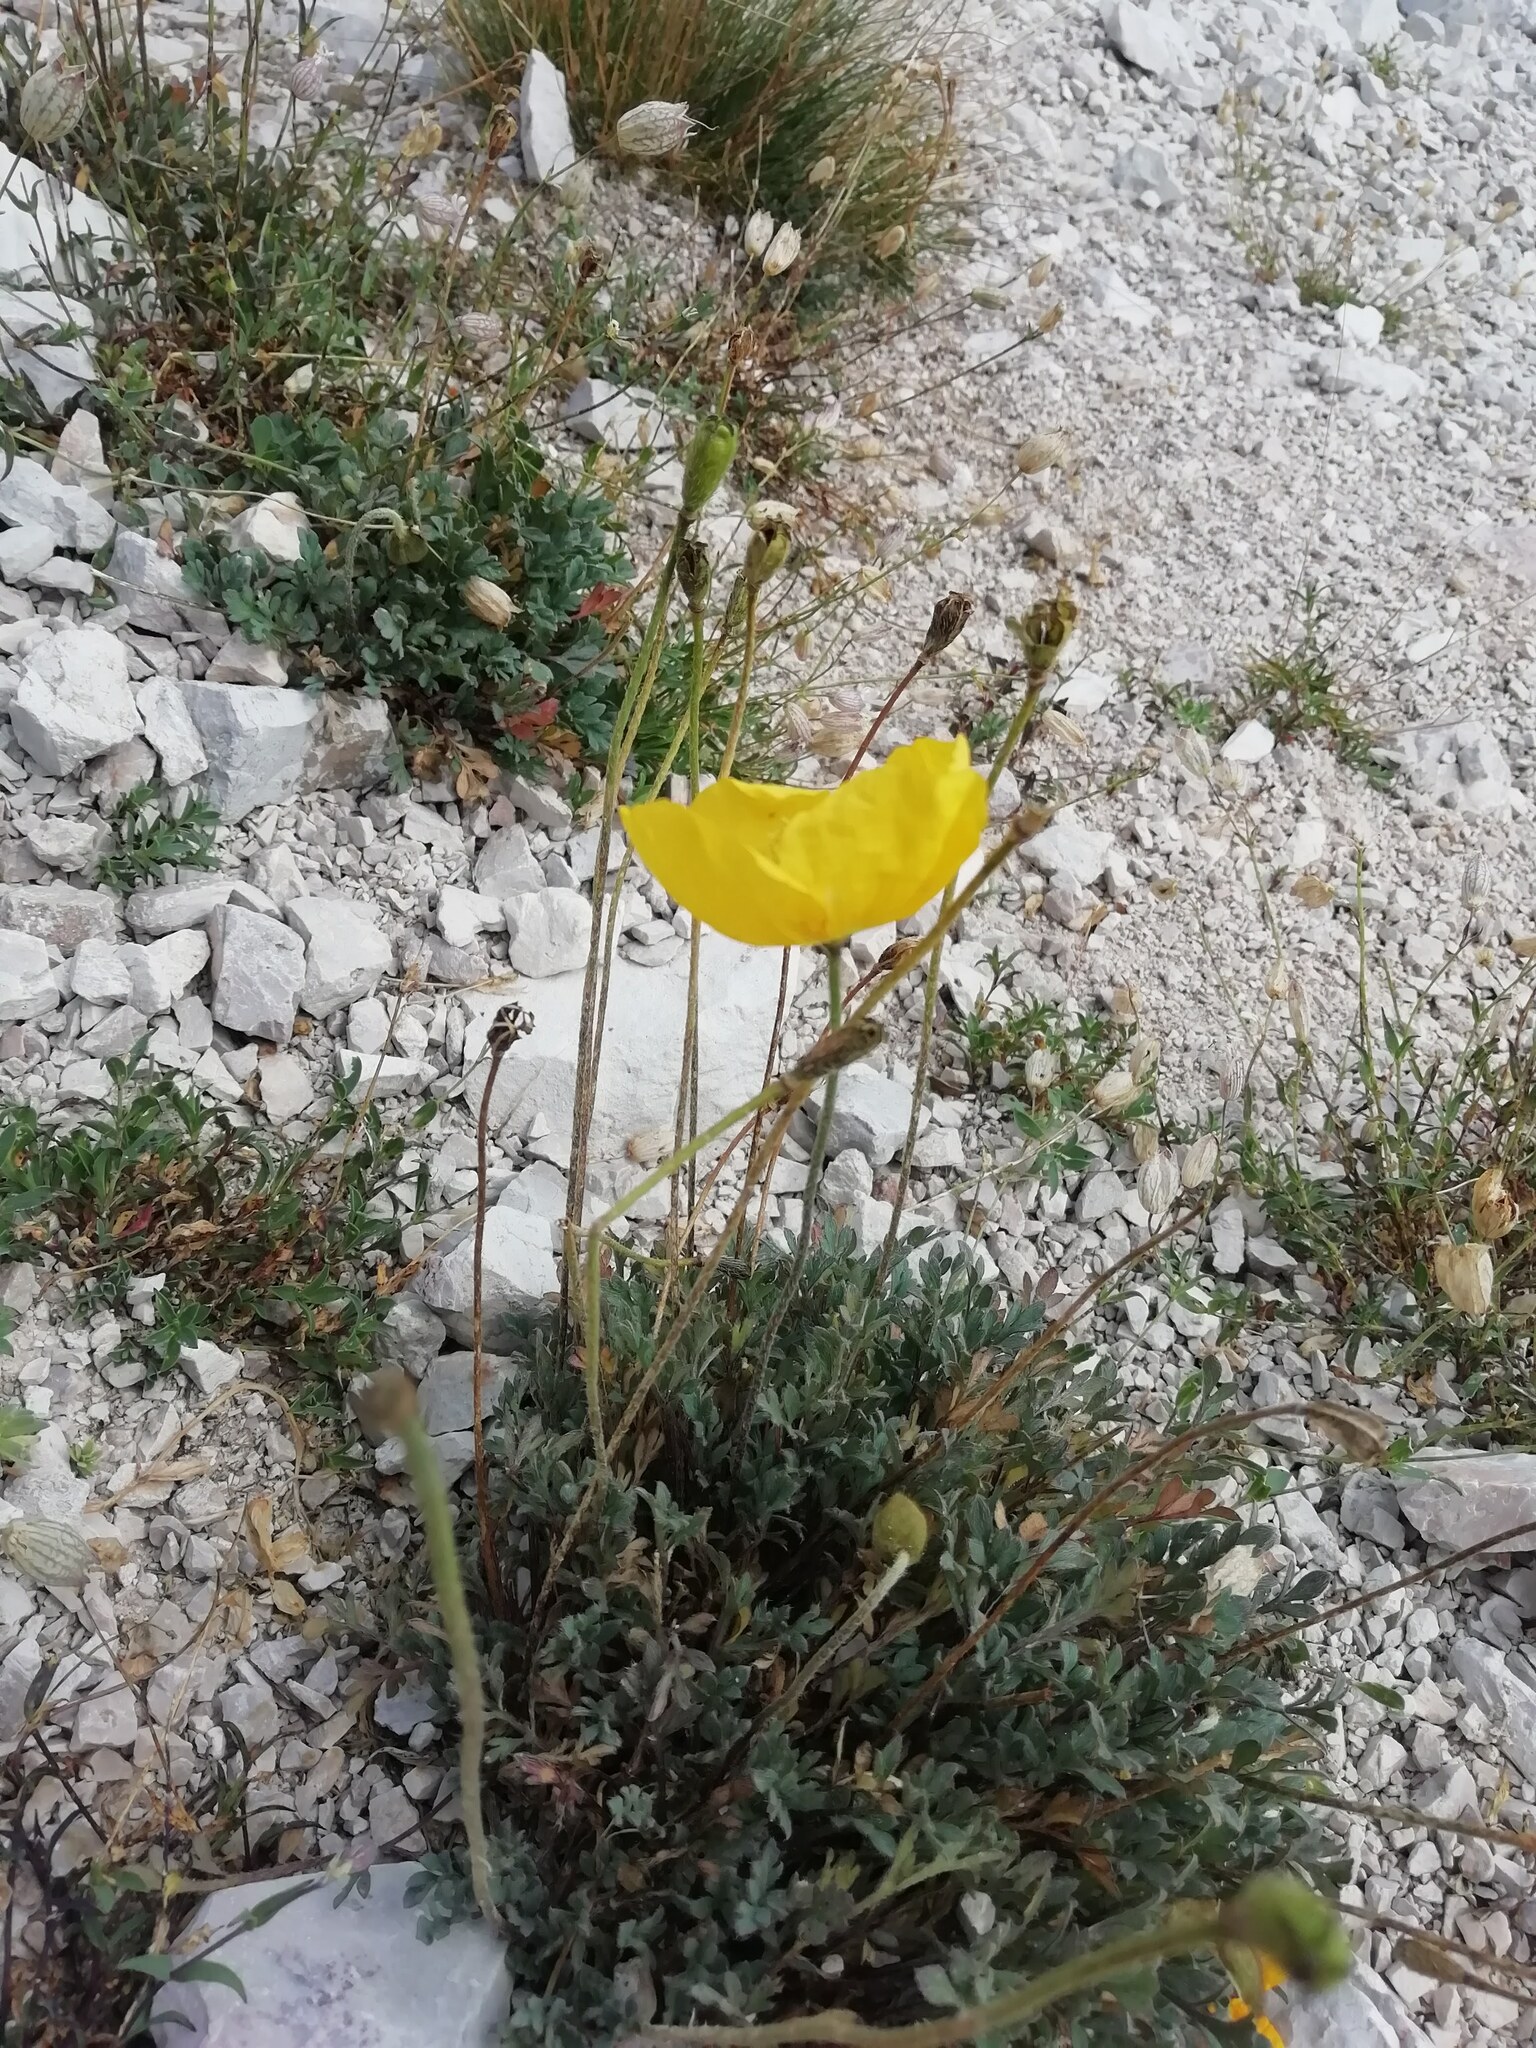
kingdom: Plantae
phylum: Tracheophyta
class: Magnoliopsida
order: Ranunculales
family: Papaveraceae
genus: Papaver
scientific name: Papaver alpinum
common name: Austrian poppy
